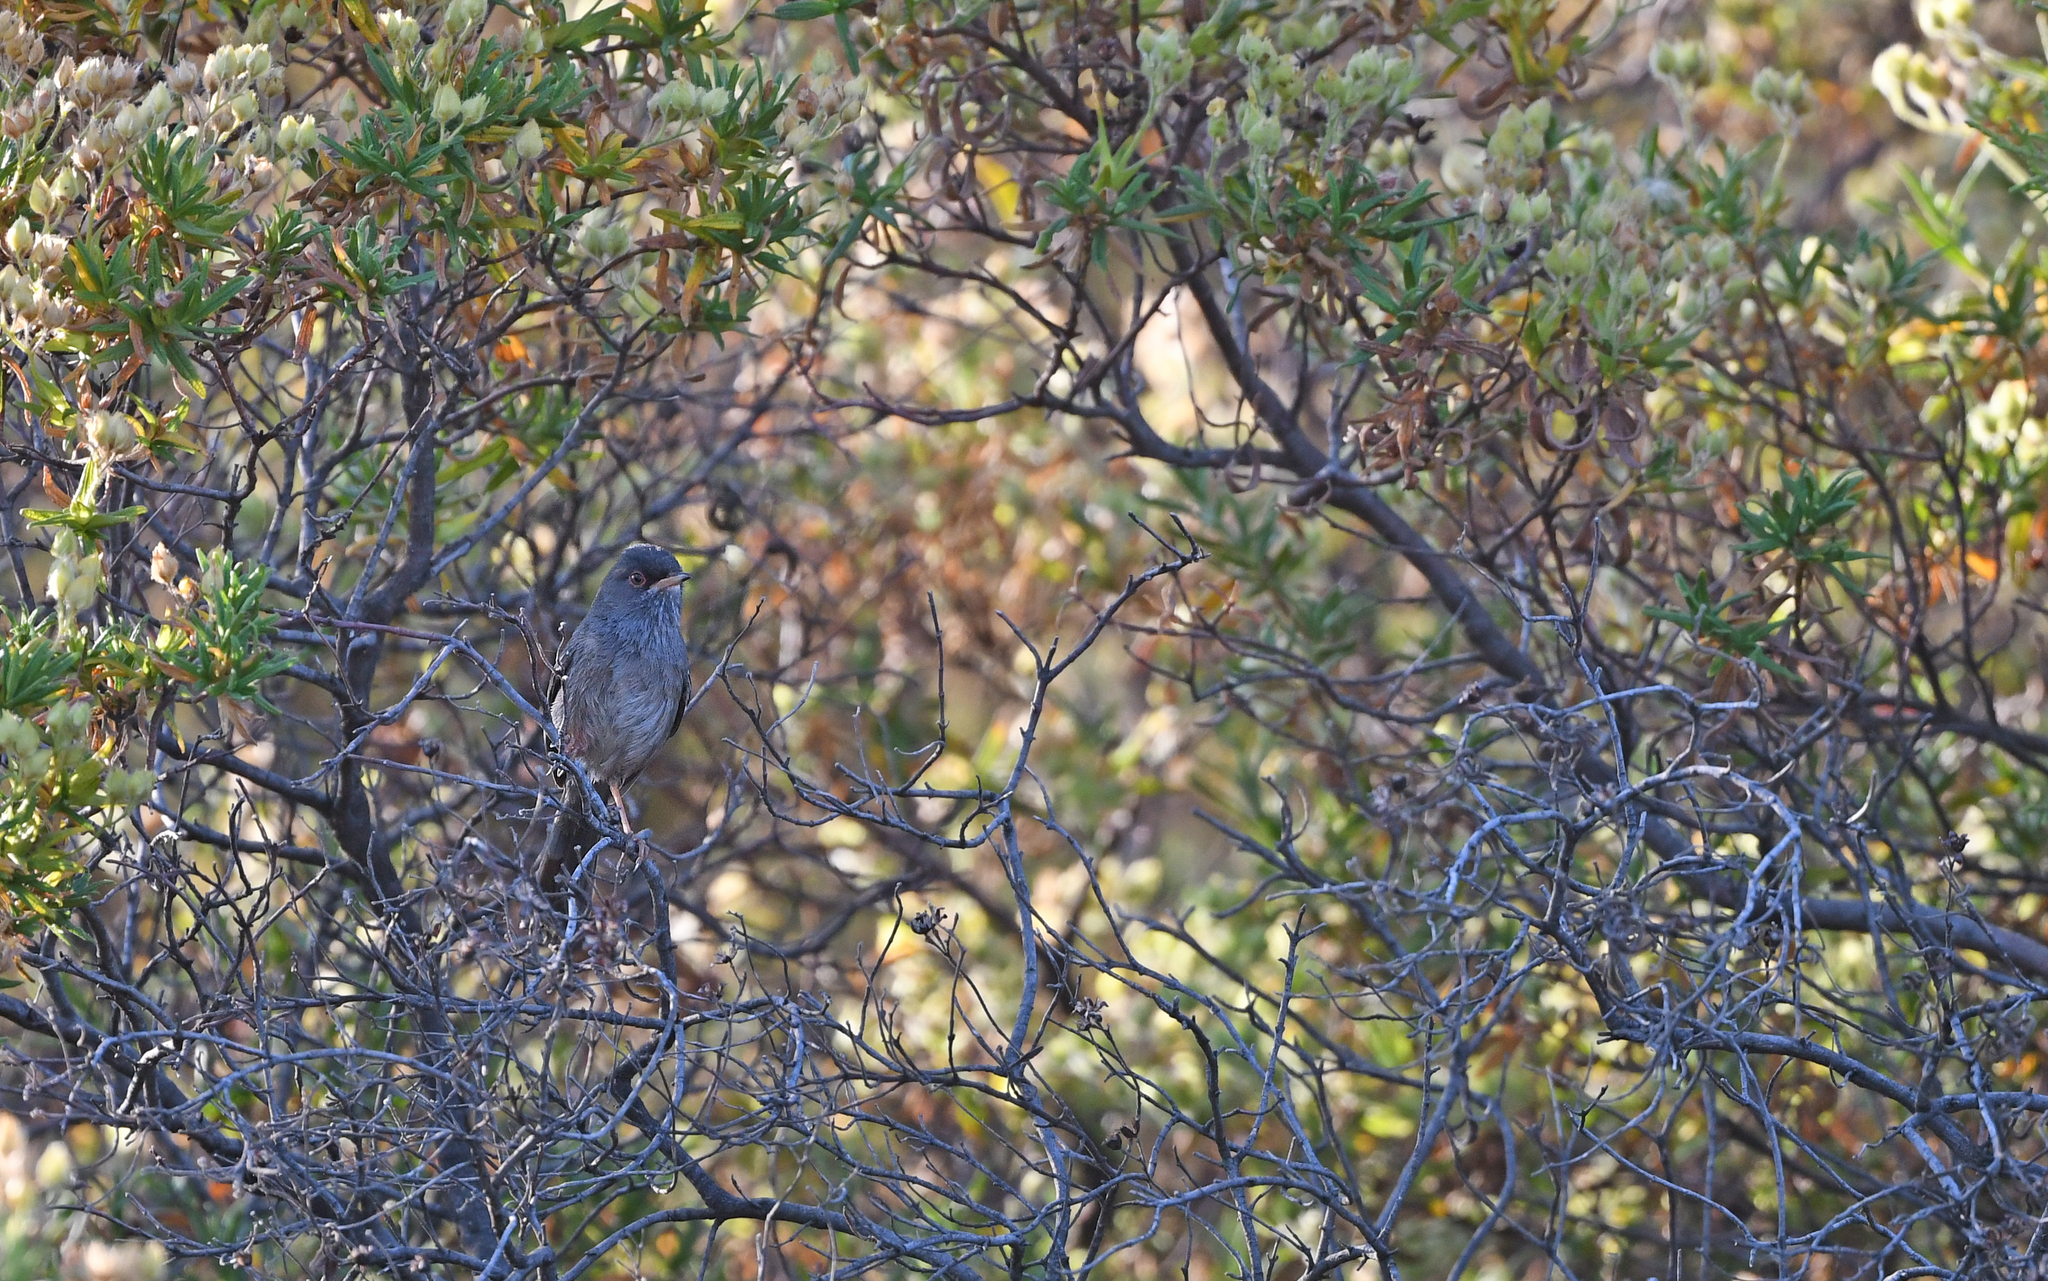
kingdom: Animalia
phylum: Chordata
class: Aves
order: Passeriformes
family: Sylviidae
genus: Sylvia
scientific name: Sylvia sarda
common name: Marmora's warbler
